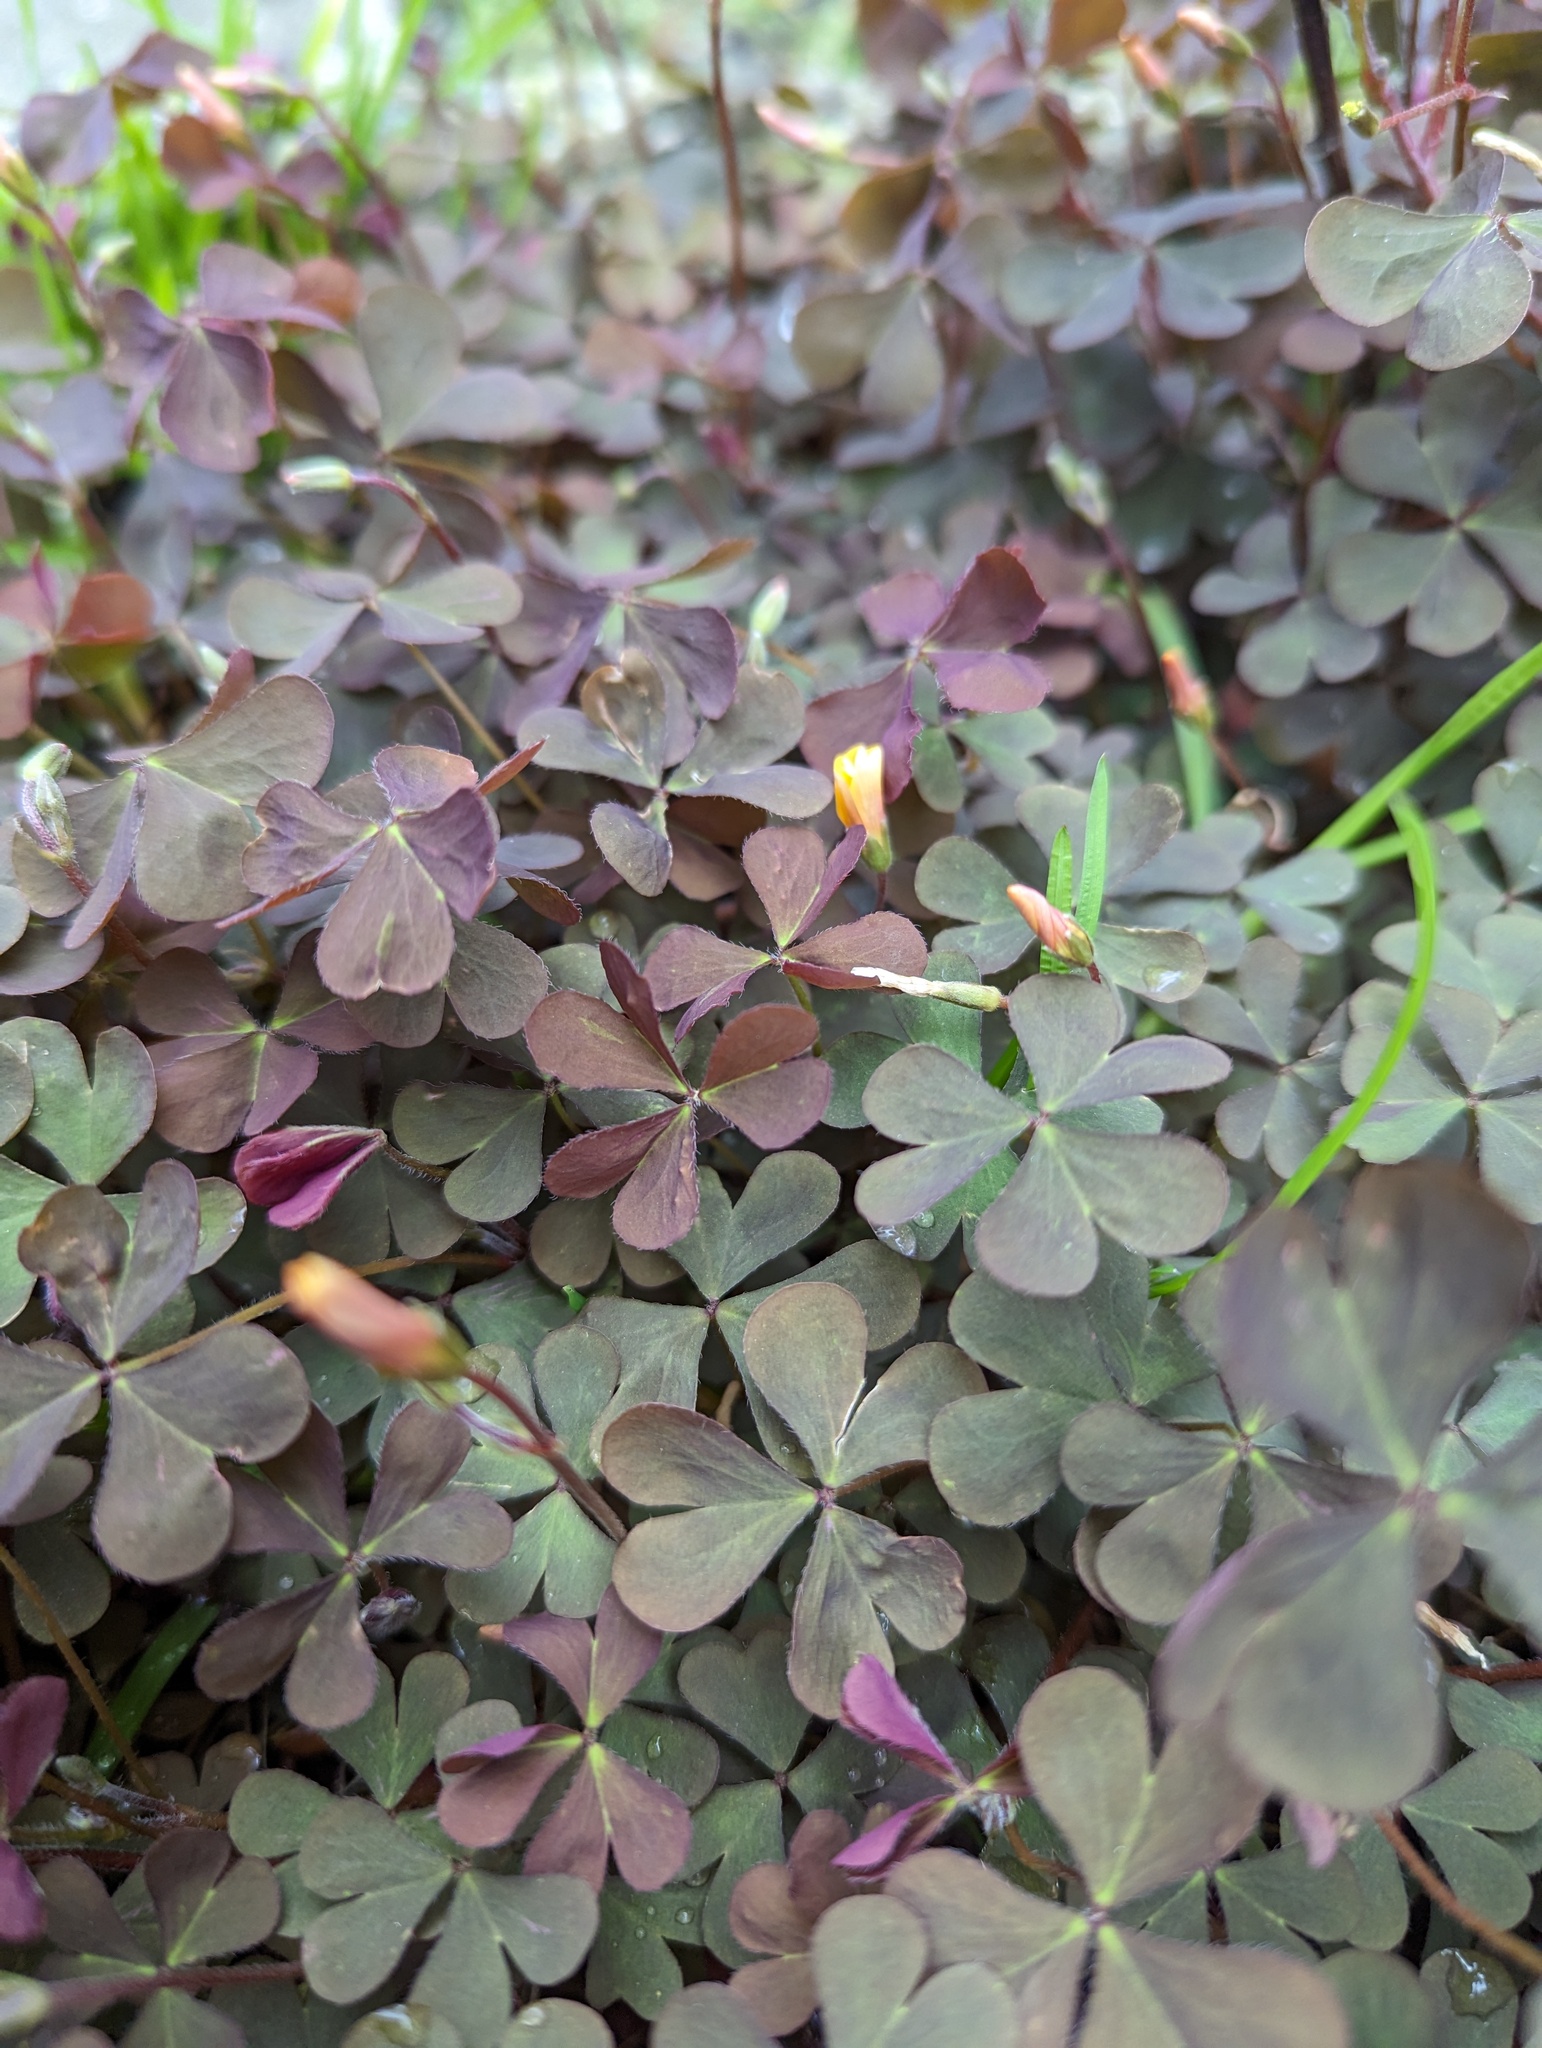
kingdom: Plantae
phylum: Tracheophyta
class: Magnoliopsida
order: Oxalidales
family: Oxalidaceae
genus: Oxalis
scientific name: Oxalis corniculata
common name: Procumbent yellow-sorrel
